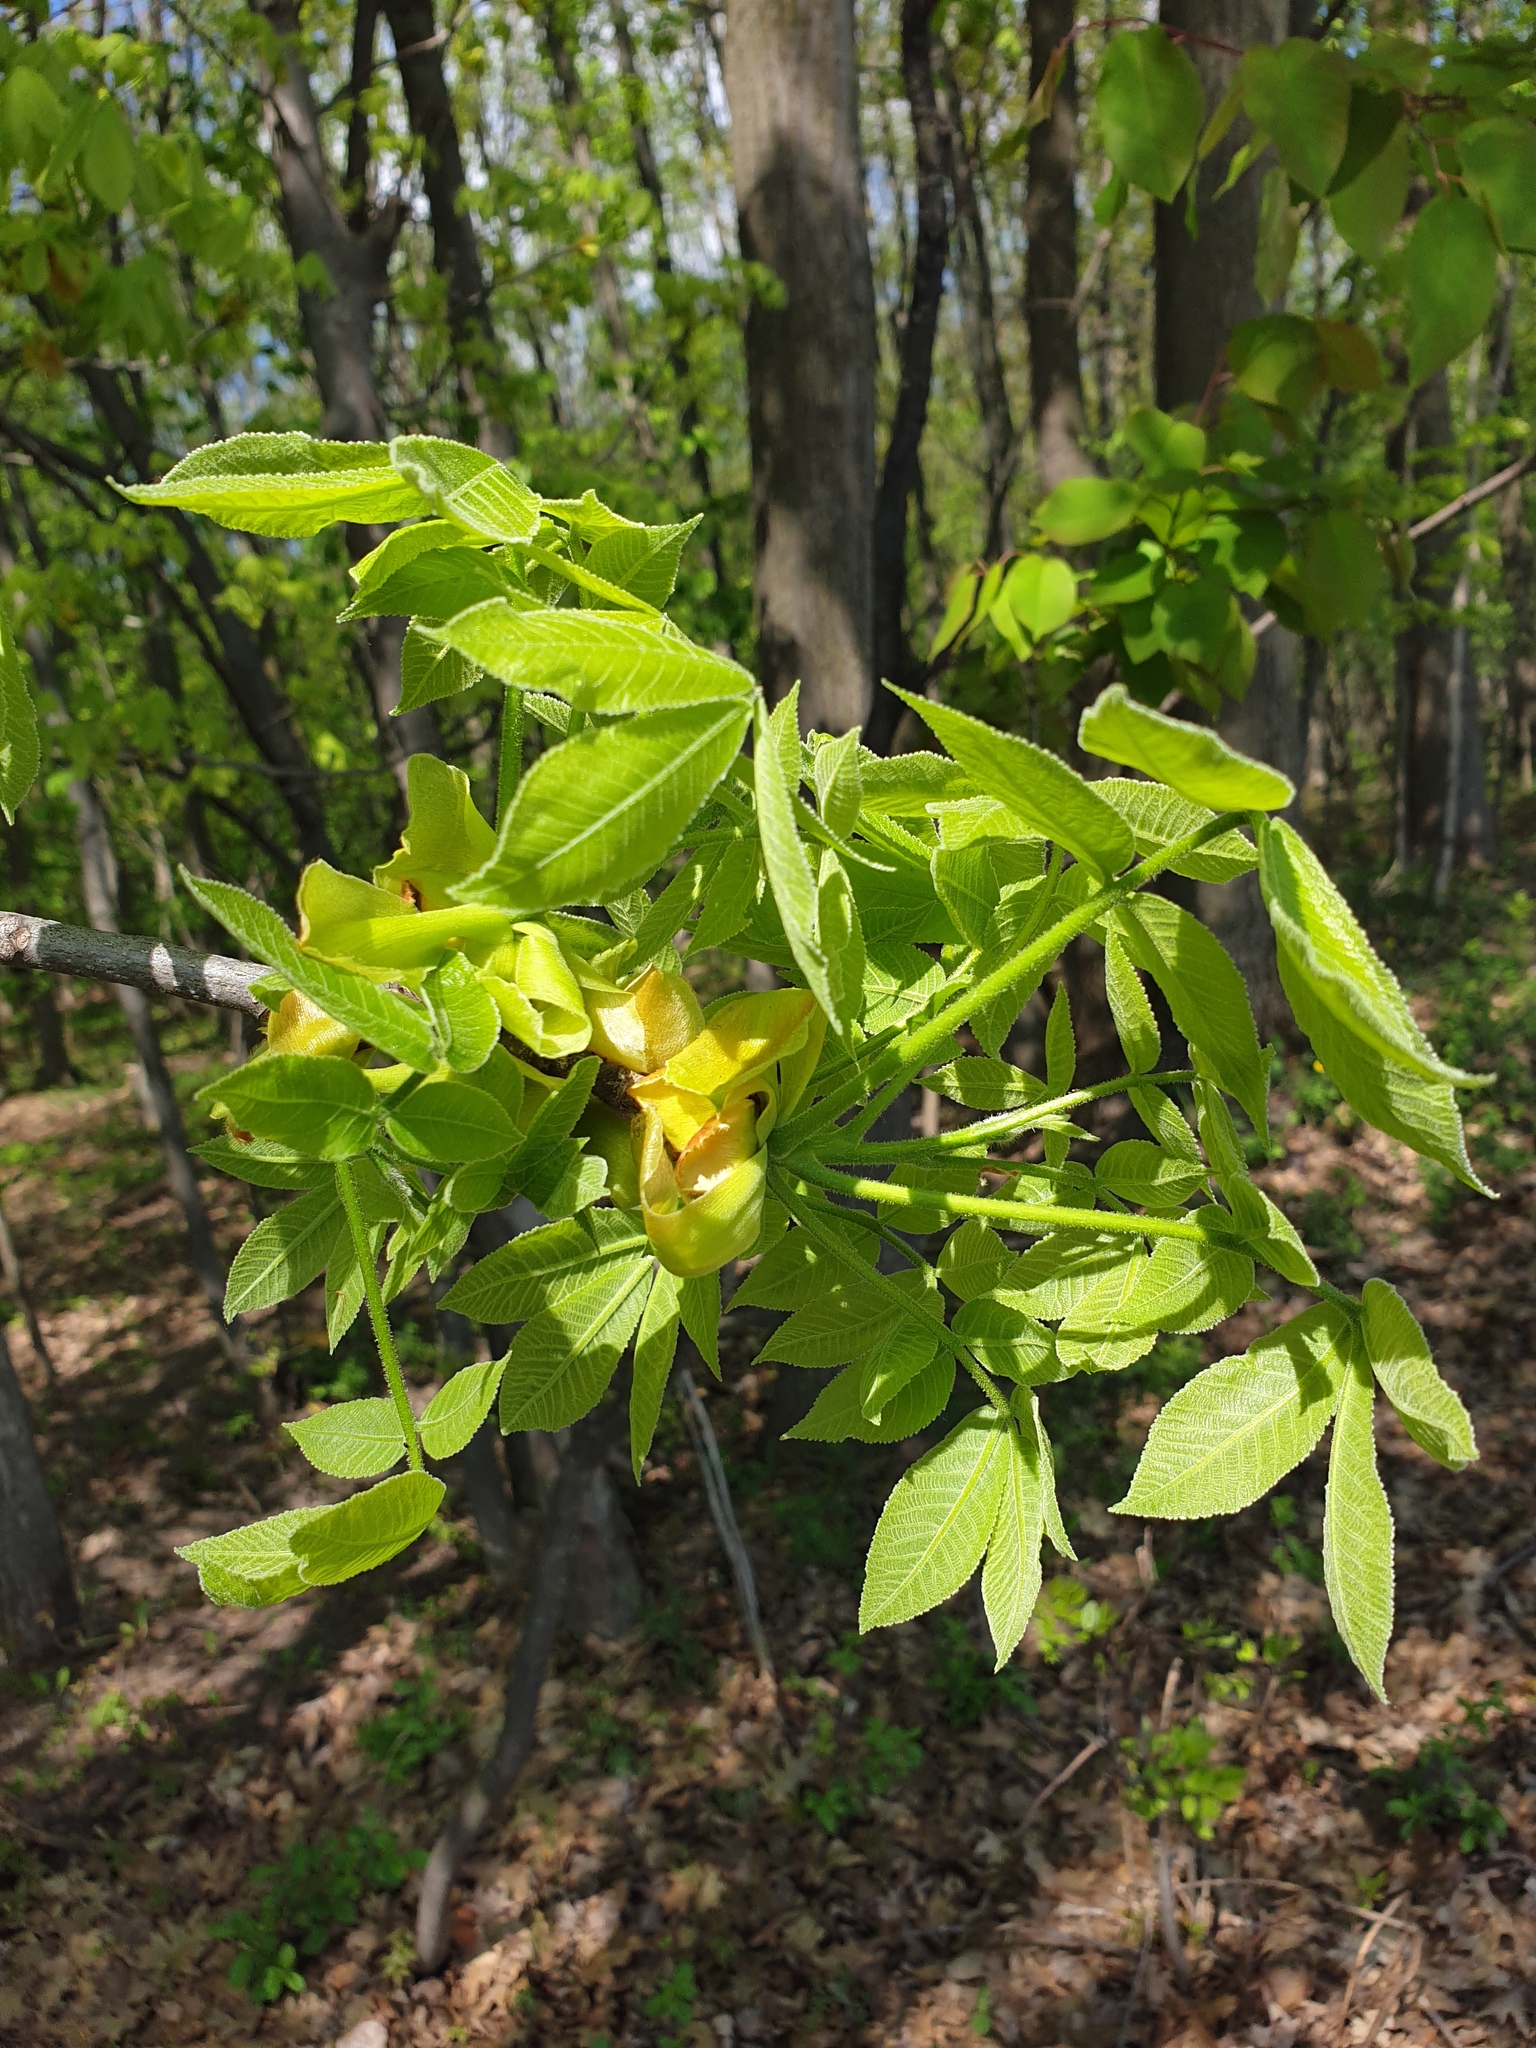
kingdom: Plantae
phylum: Tracheophyta
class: Magnoliopsida
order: Fagales
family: Juglandaceae
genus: Carya
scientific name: Carya ovata
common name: Shagbark hickory
